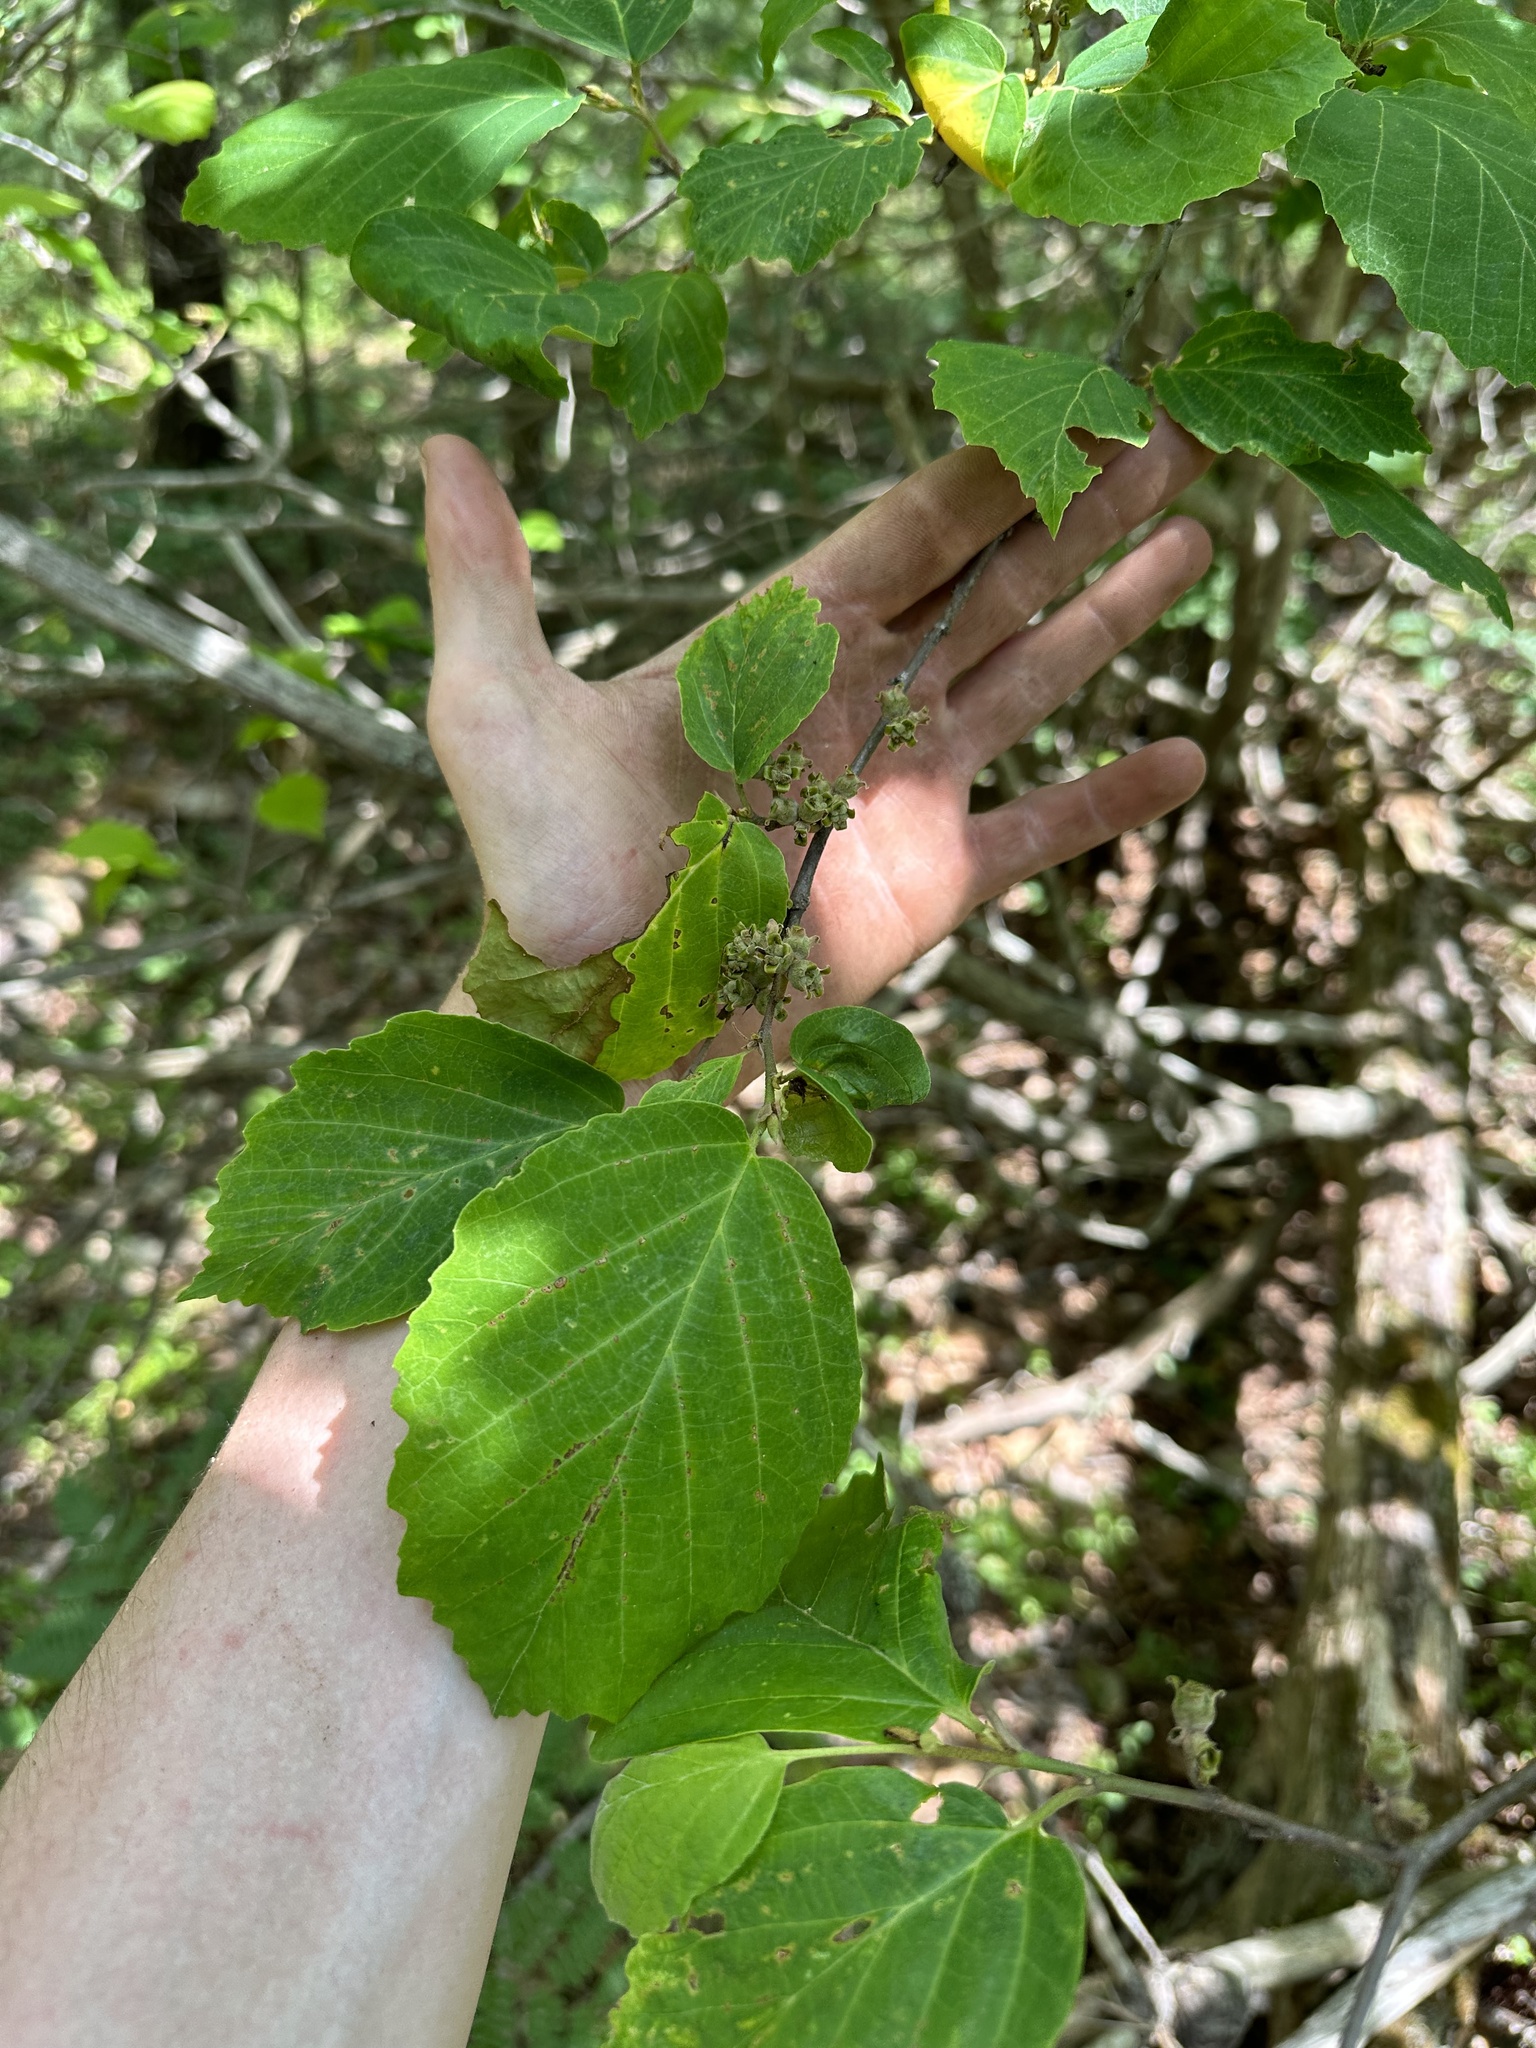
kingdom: Plantae
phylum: Tracheophyta
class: Magnoliopsida
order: Saxifragales
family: Hamamelidaceae
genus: Hamamelis
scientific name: Hamamelis virginiana
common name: Witch-hazel
